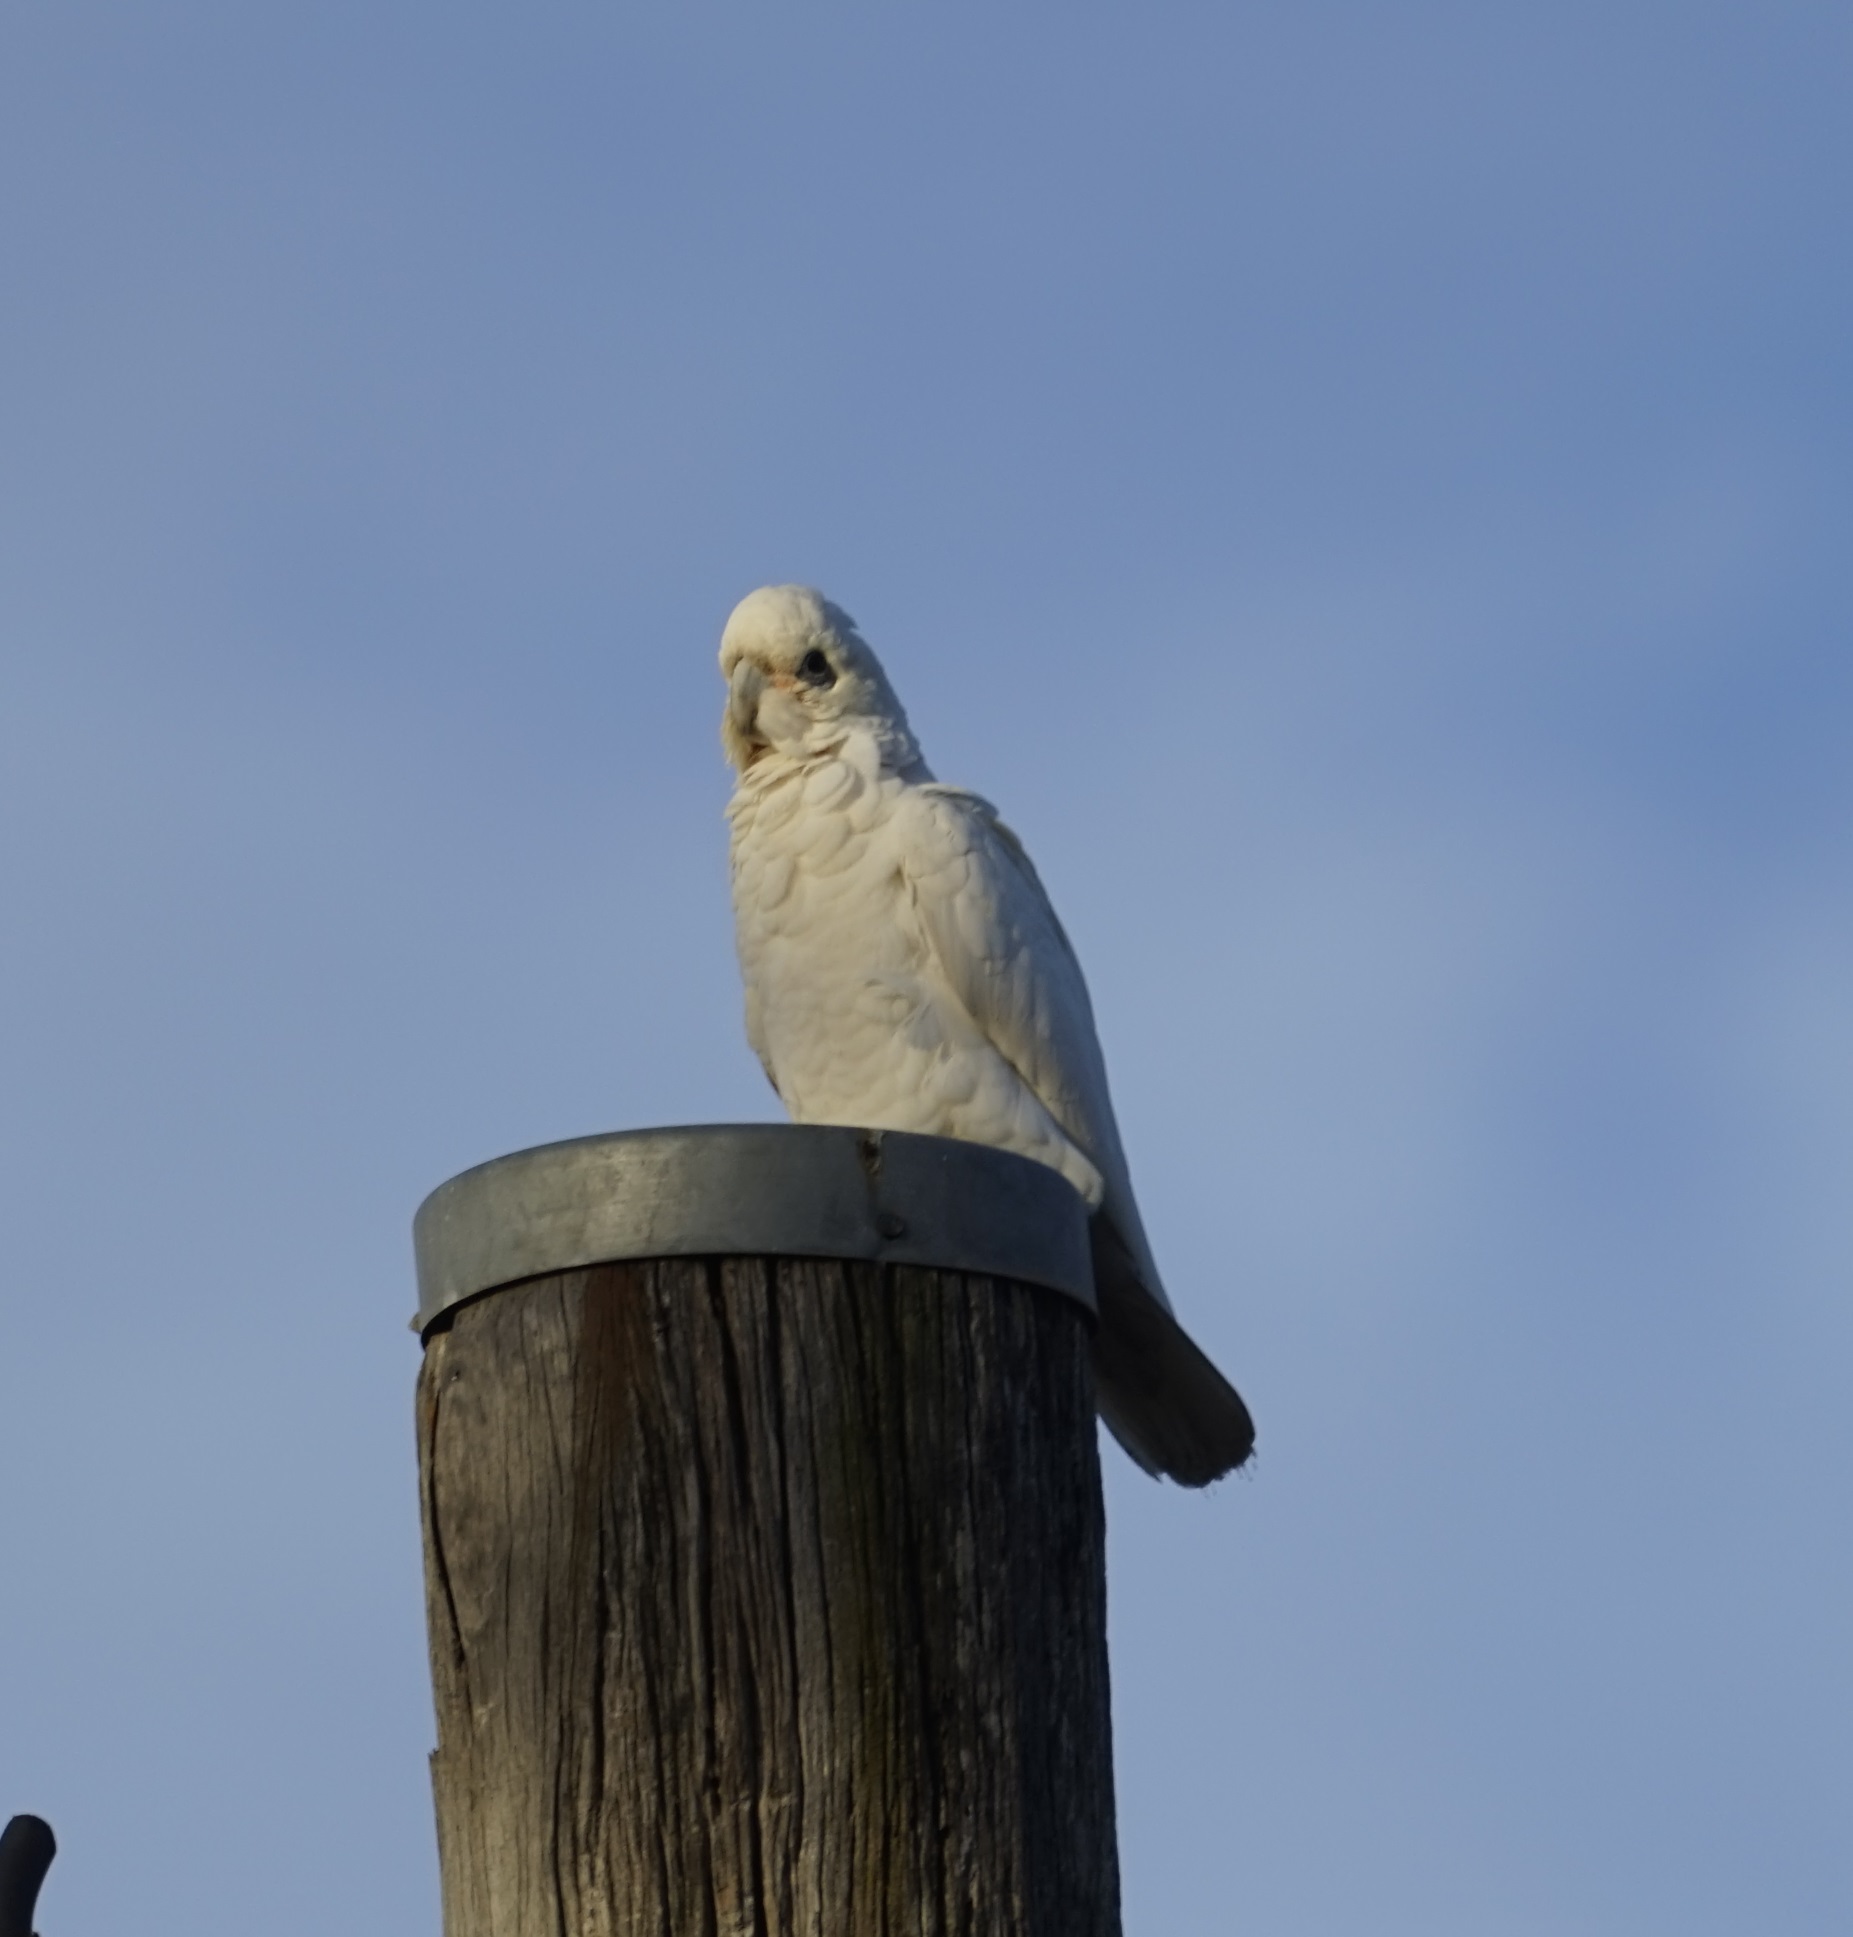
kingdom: Animalia
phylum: Chordata
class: Aves
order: Psittaciformes
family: Psittacidae
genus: Cacatua
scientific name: Cacatua sanguinea
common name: Little corella
